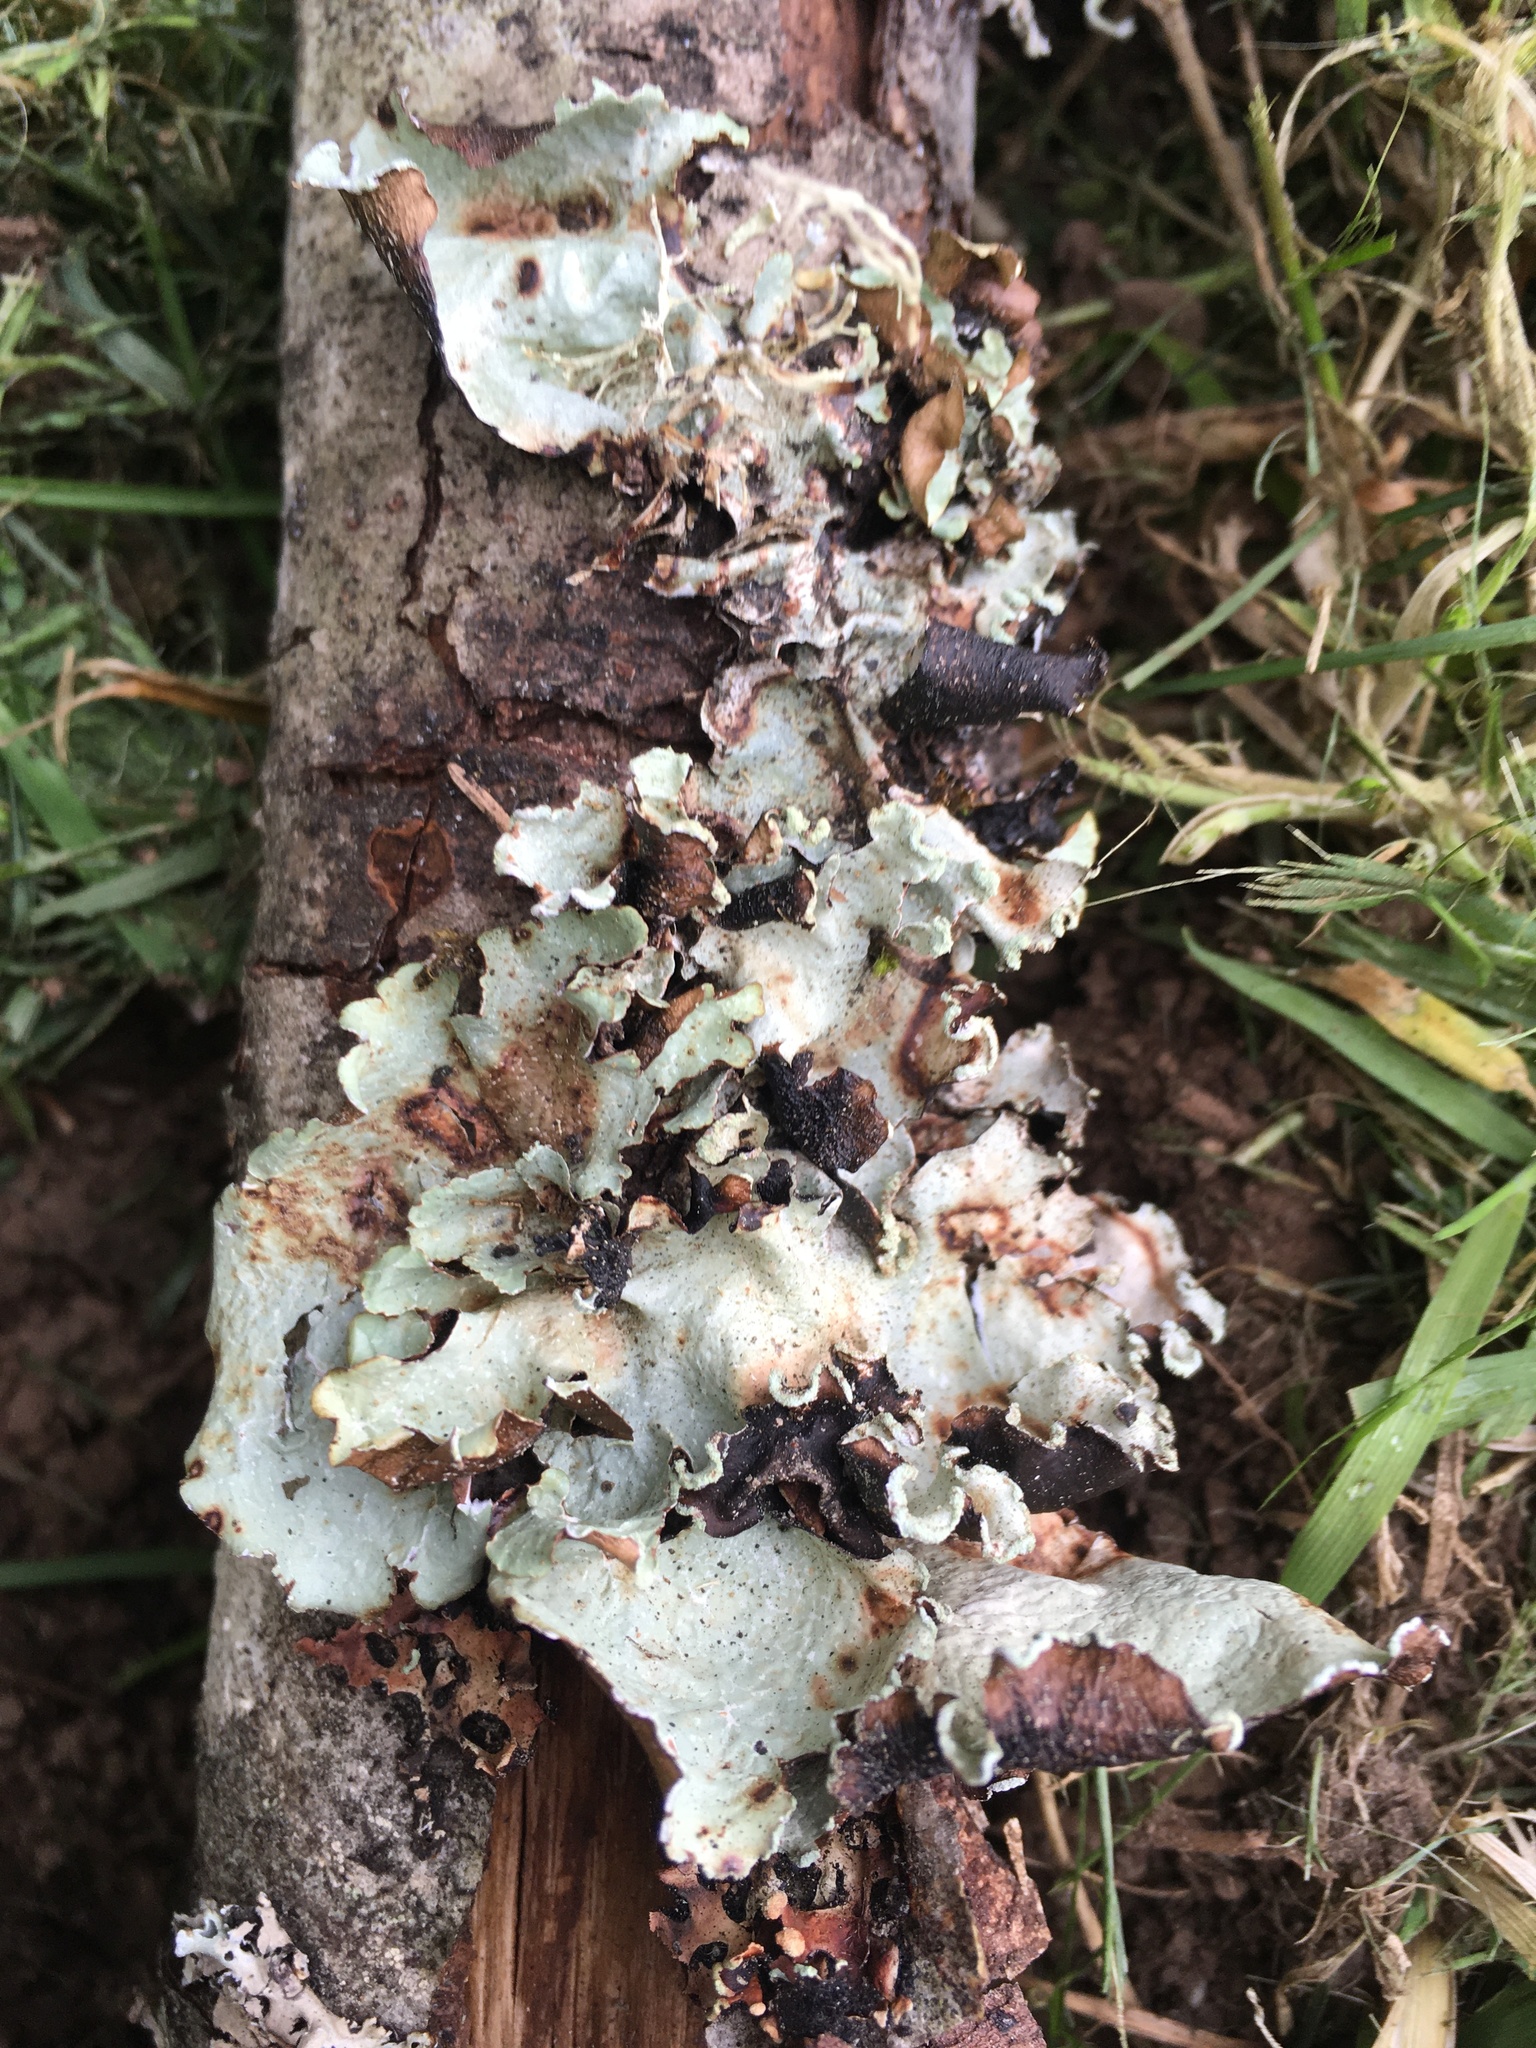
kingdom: Fungi
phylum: Ascomycota
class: Lecanoromycetes
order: Lecanorales
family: Parmeliaceae
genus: Cetrelia
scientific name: Cetrelia cetrarioides
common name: Speckled iceland lichen
